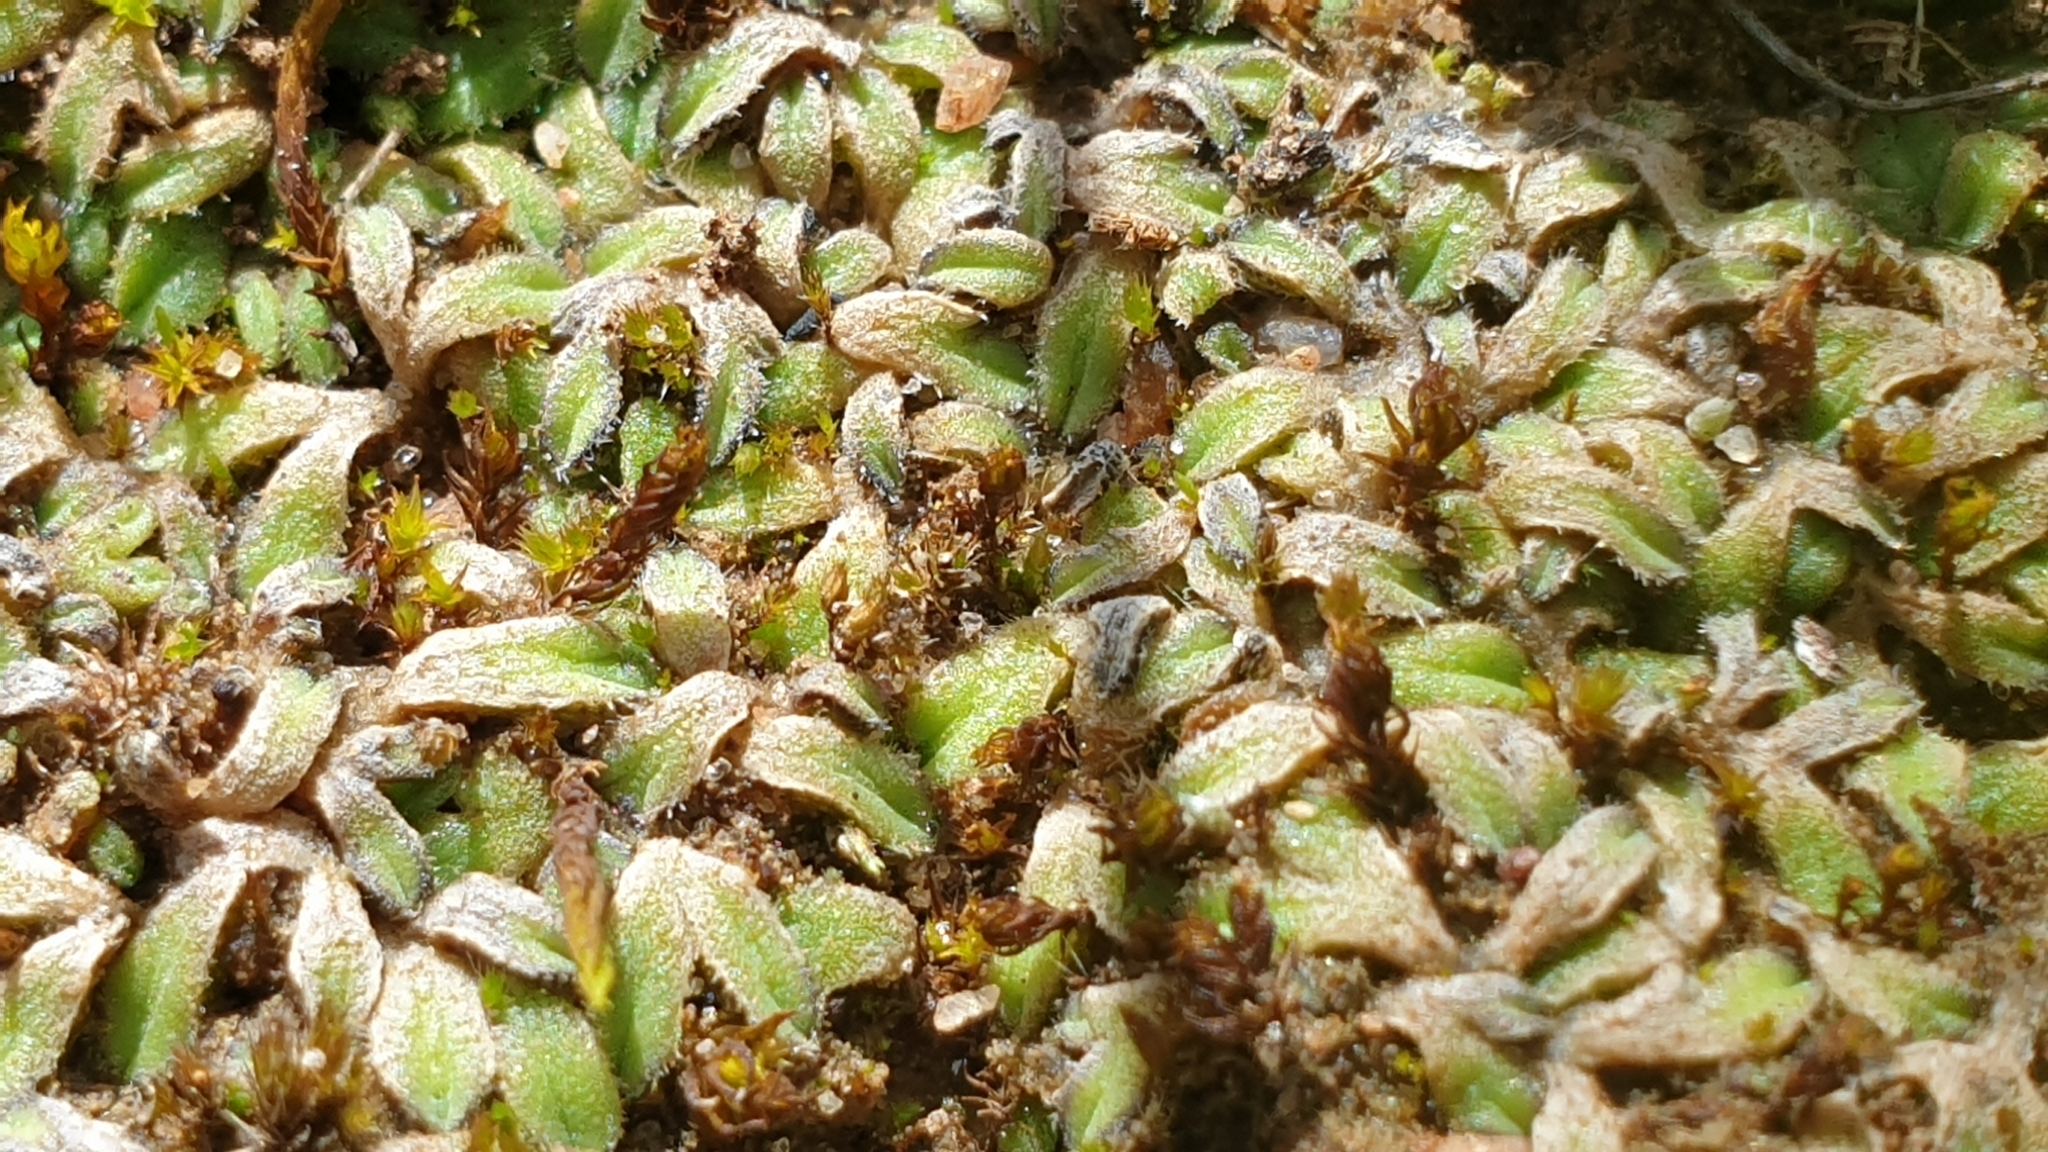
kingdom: Plantae
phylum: Marchantiophyta
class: Marchantiopsida
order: Marchantiales
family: Ricciaceae
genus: Riccia
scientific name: Riccia asprella
